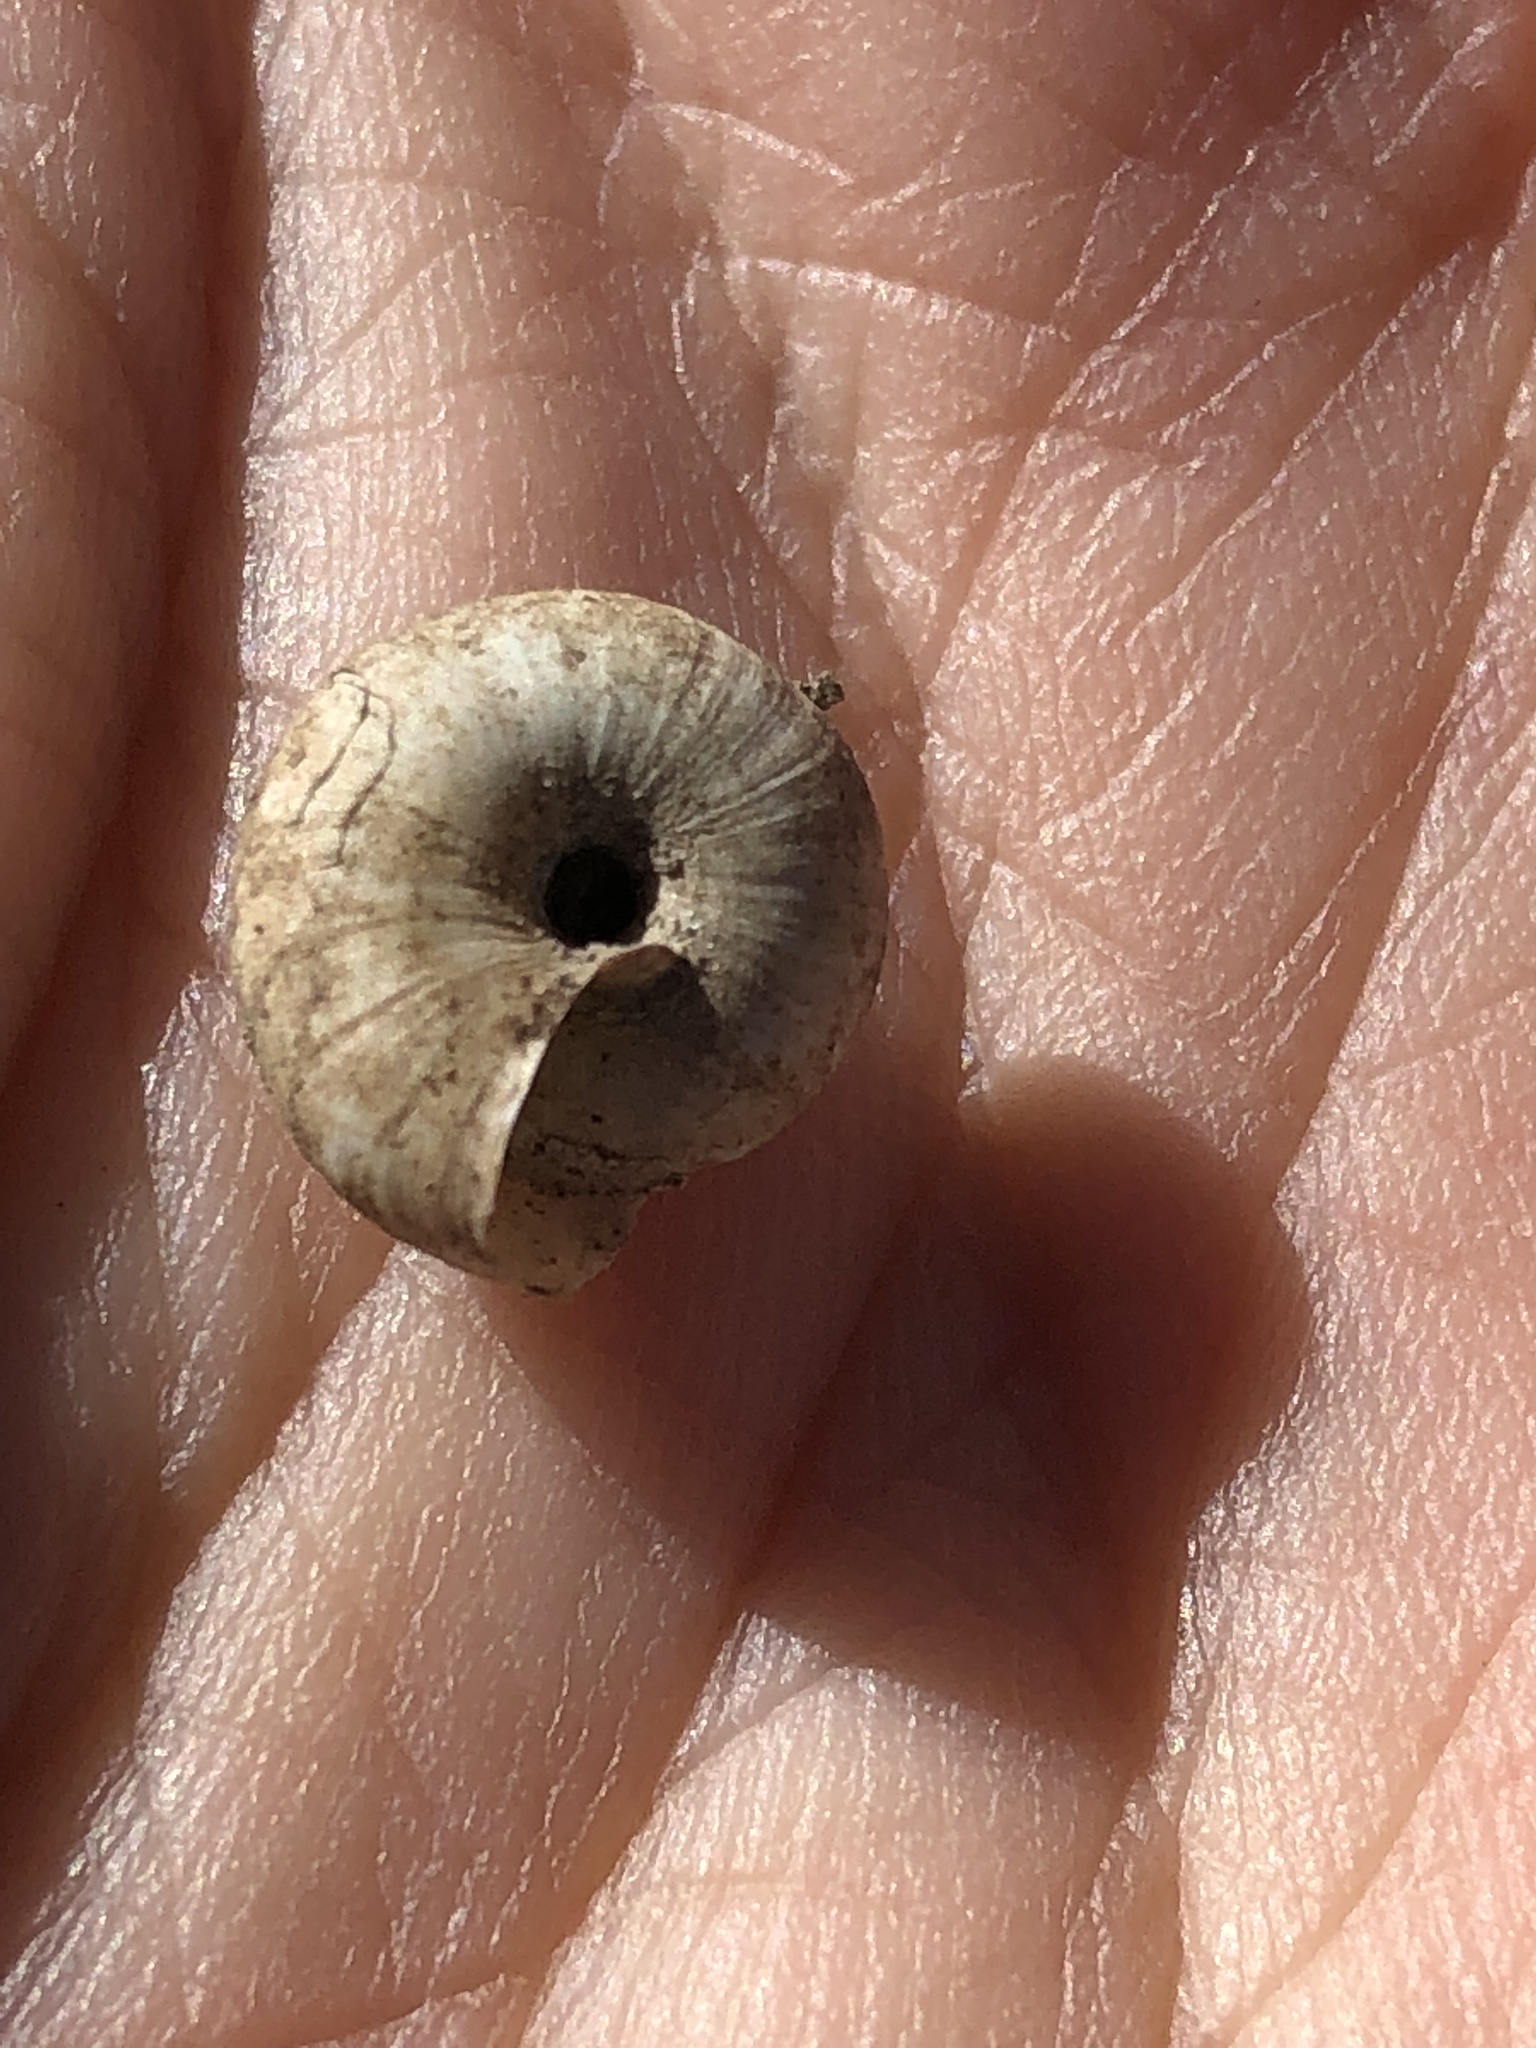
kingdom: Animalia
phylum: Mollusca
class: Gastropoda
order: Stylommatophora
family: Discidae
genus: Anguispira
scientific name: Anguispira alternata
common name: Flamed tigersnail
